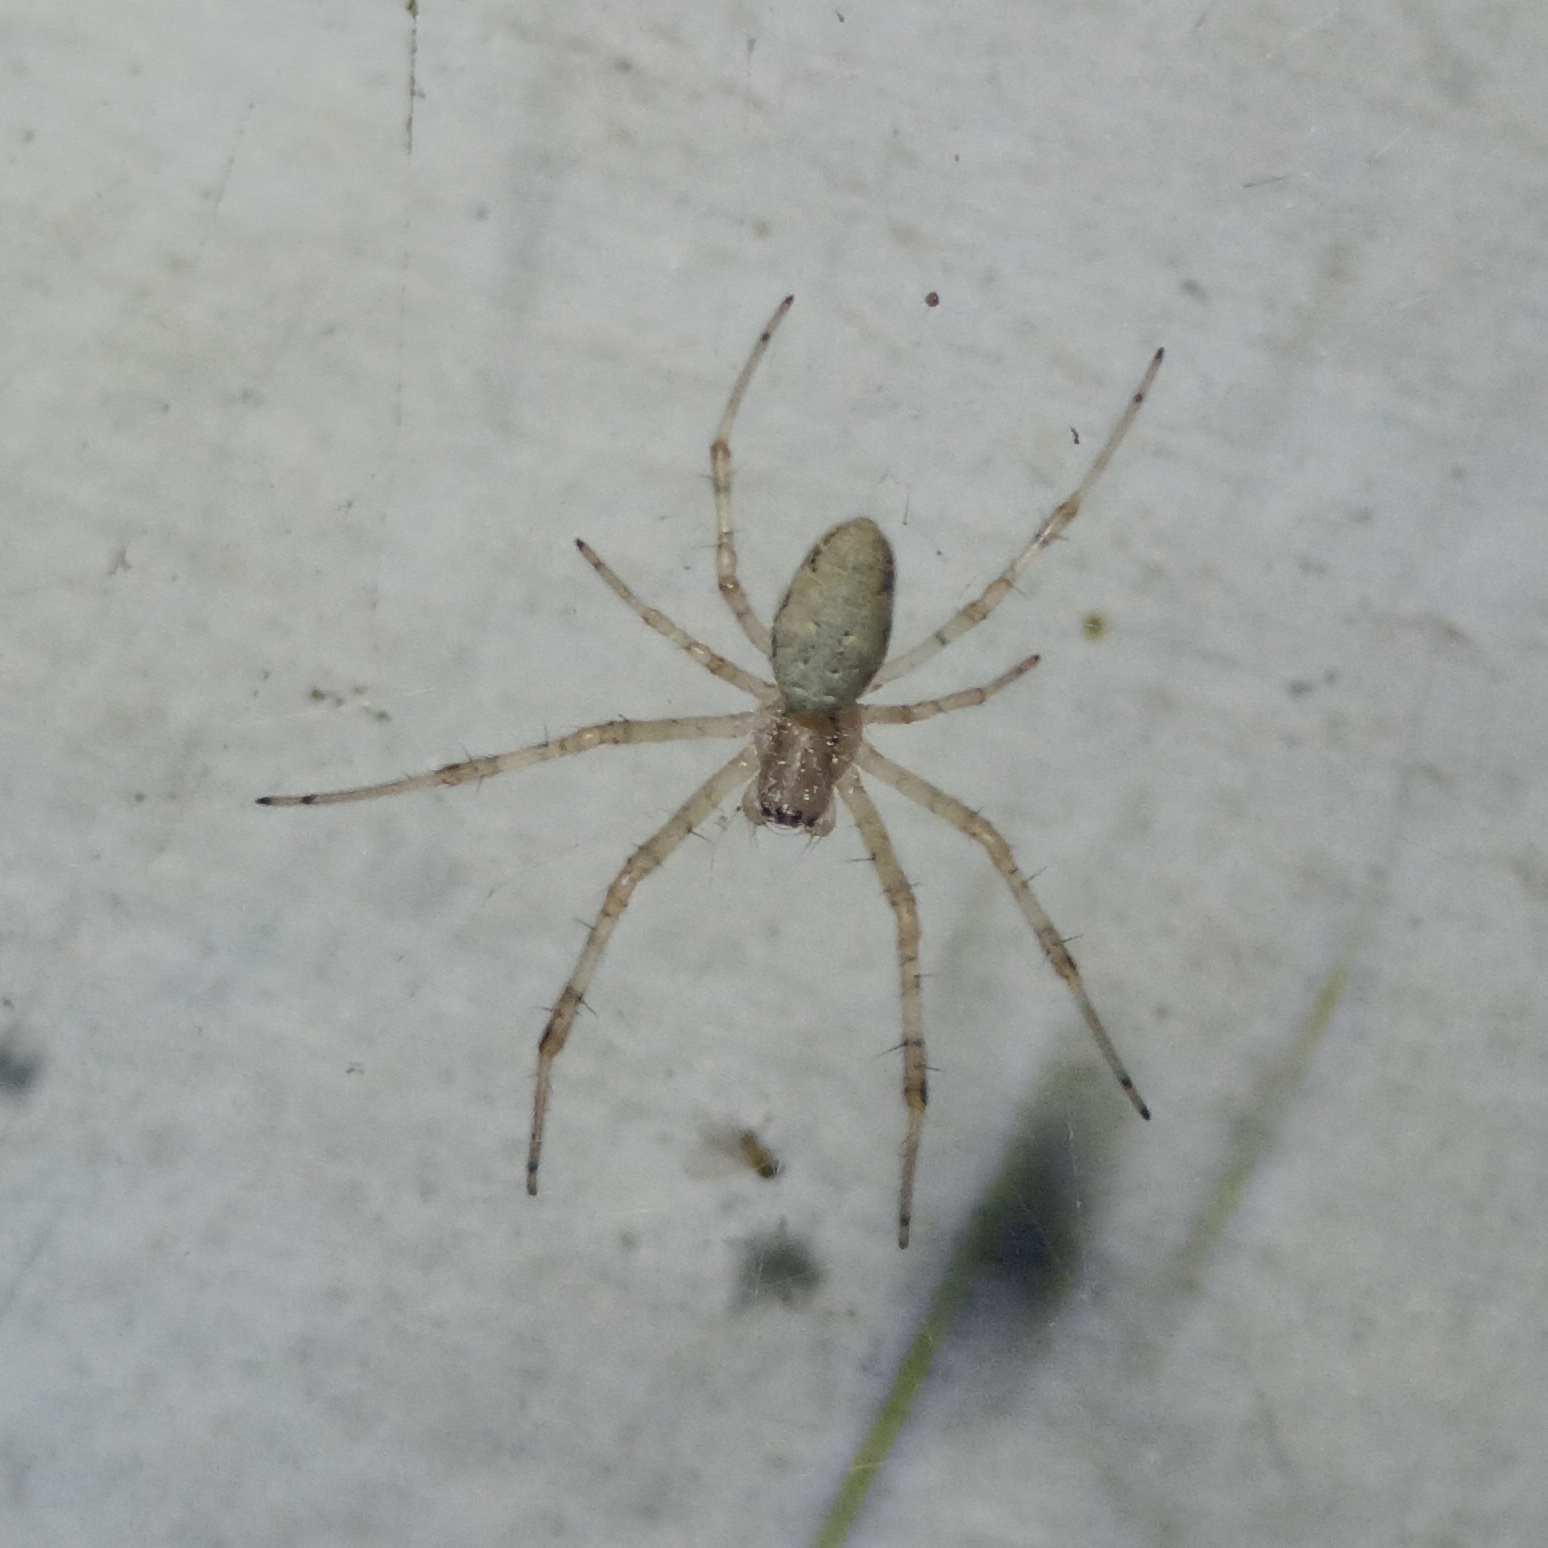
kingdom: Animalia
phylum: Arthropoda
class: Arachnida
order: Araneae
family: Araneidae
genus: Nephilingis
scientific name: Nephilingis cruentata
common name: African hermit spider
